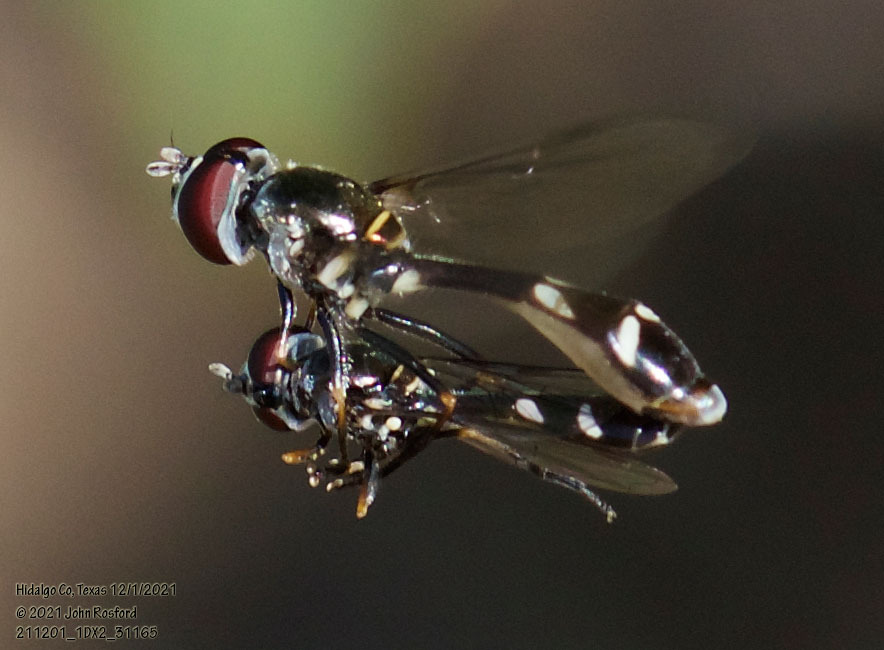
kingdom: Animalia
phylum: Arthropoda
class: Insecta
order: Diptera
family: Syrphidae
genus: Dioprosopa
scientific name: Dioprosopa clavatus
